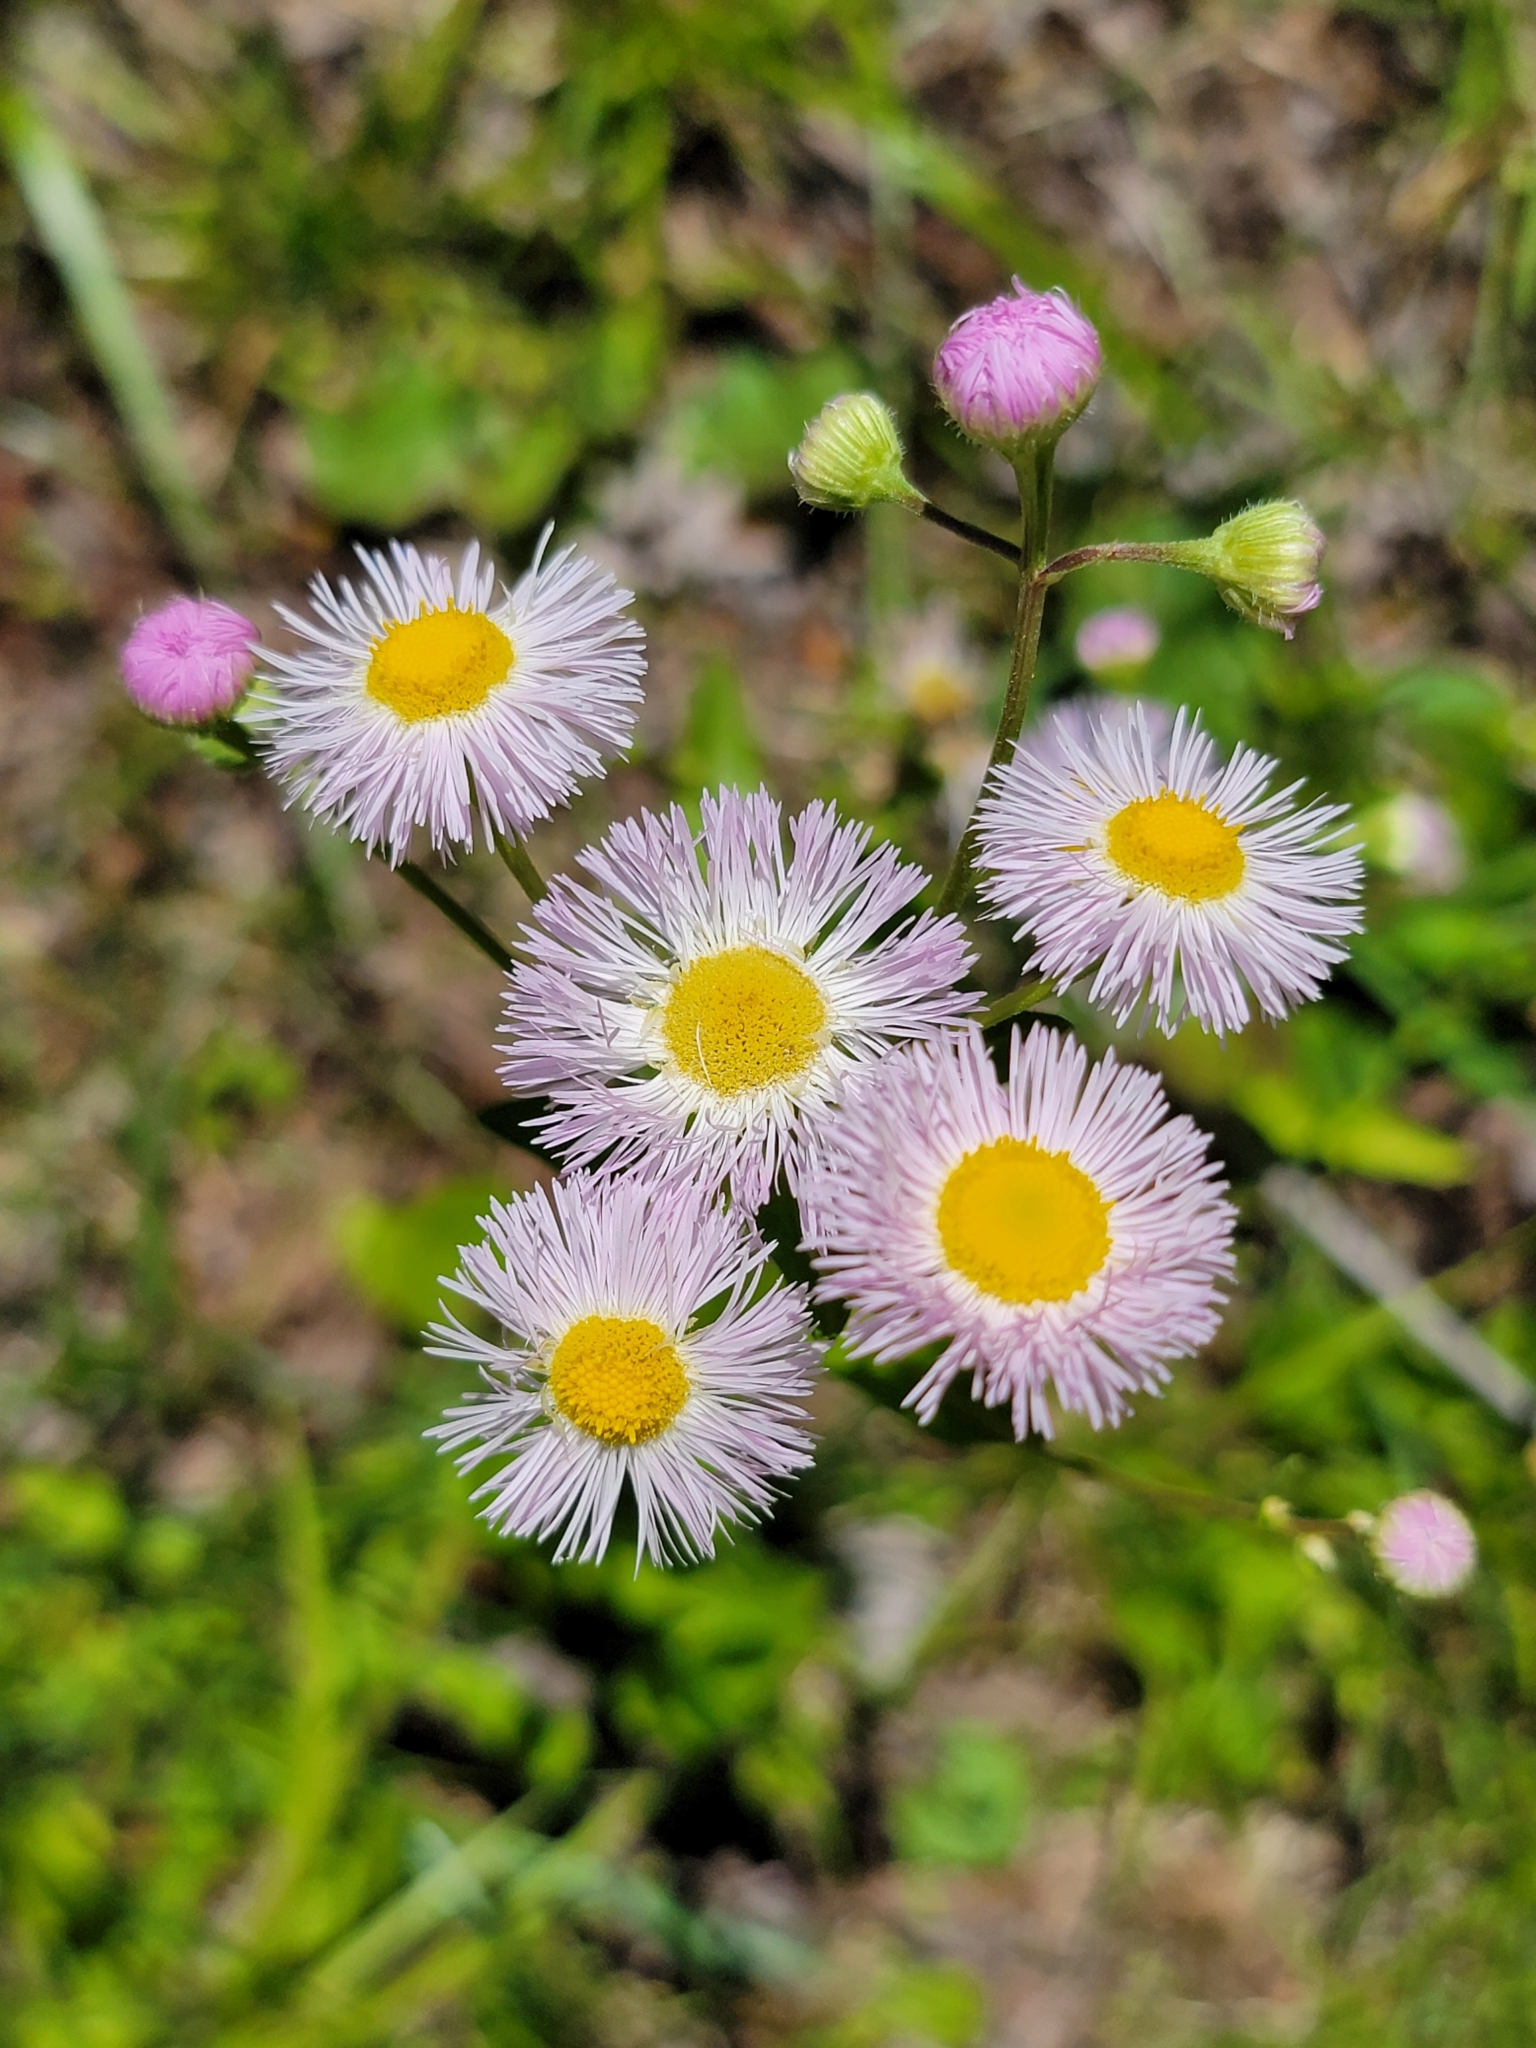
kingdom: Plantae
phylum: Tracheophyta
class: Magnoliopsida
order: Asterales
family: Asteraceae
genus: Erigeron
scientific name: Erigeron philadelphicus
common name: Robin's-plantain
